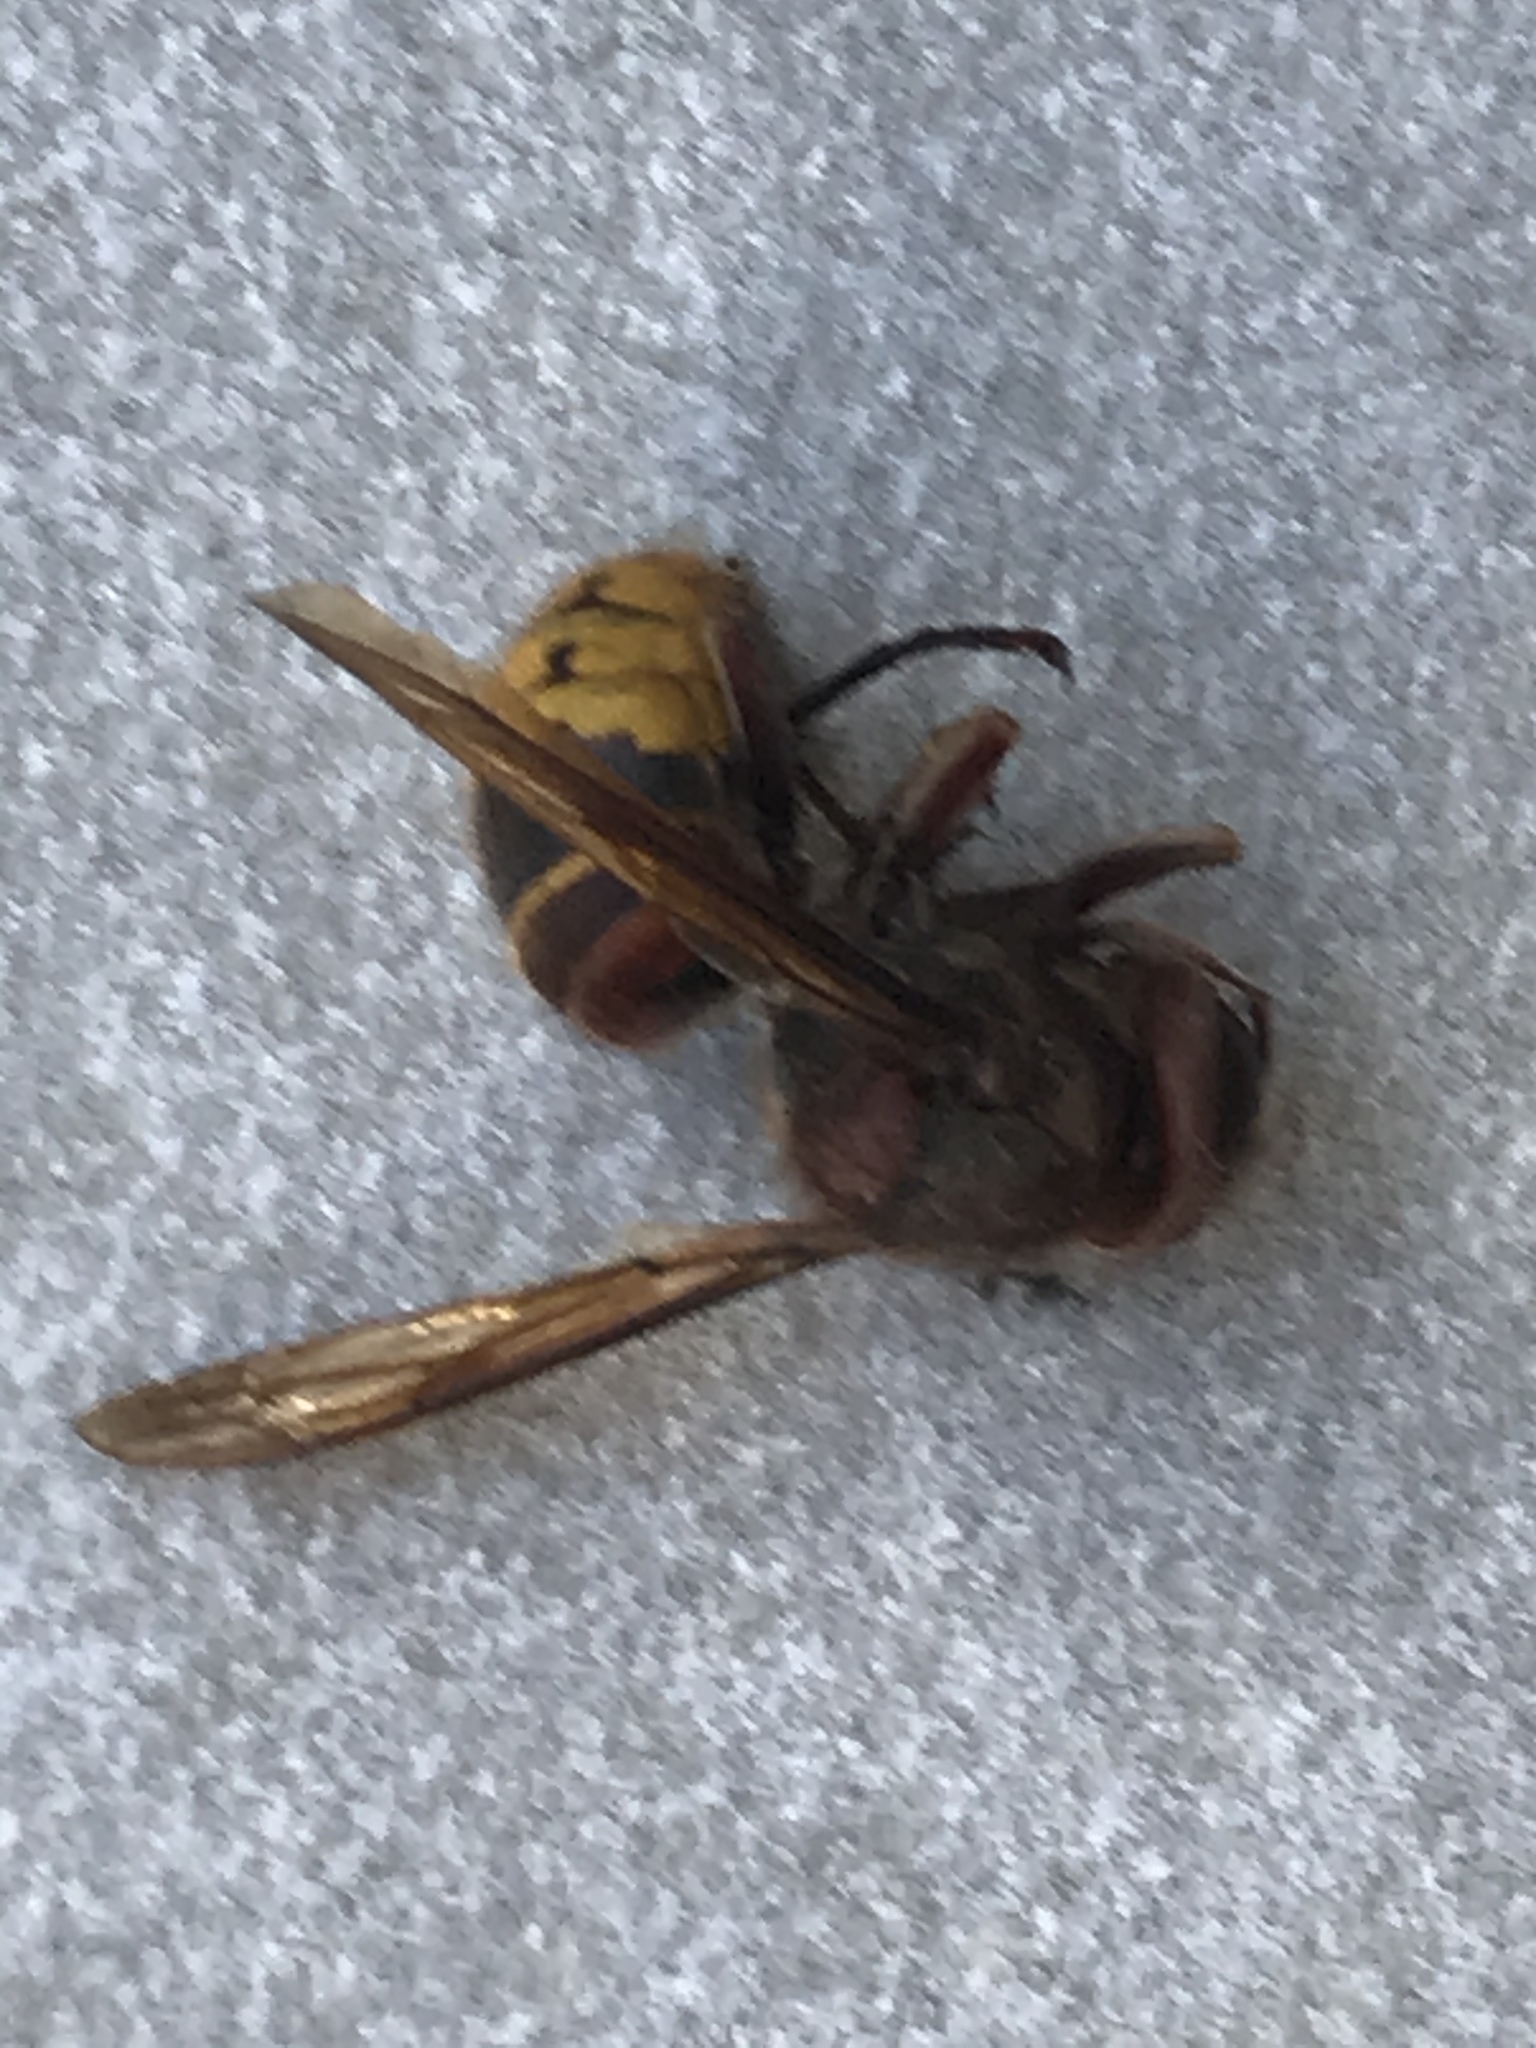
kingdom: Animalia
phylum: Arthropoda
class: Insecta
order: Hymenoptera
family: Vespidae
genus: Vespa
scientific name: Vespa crabro
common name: Hornet
